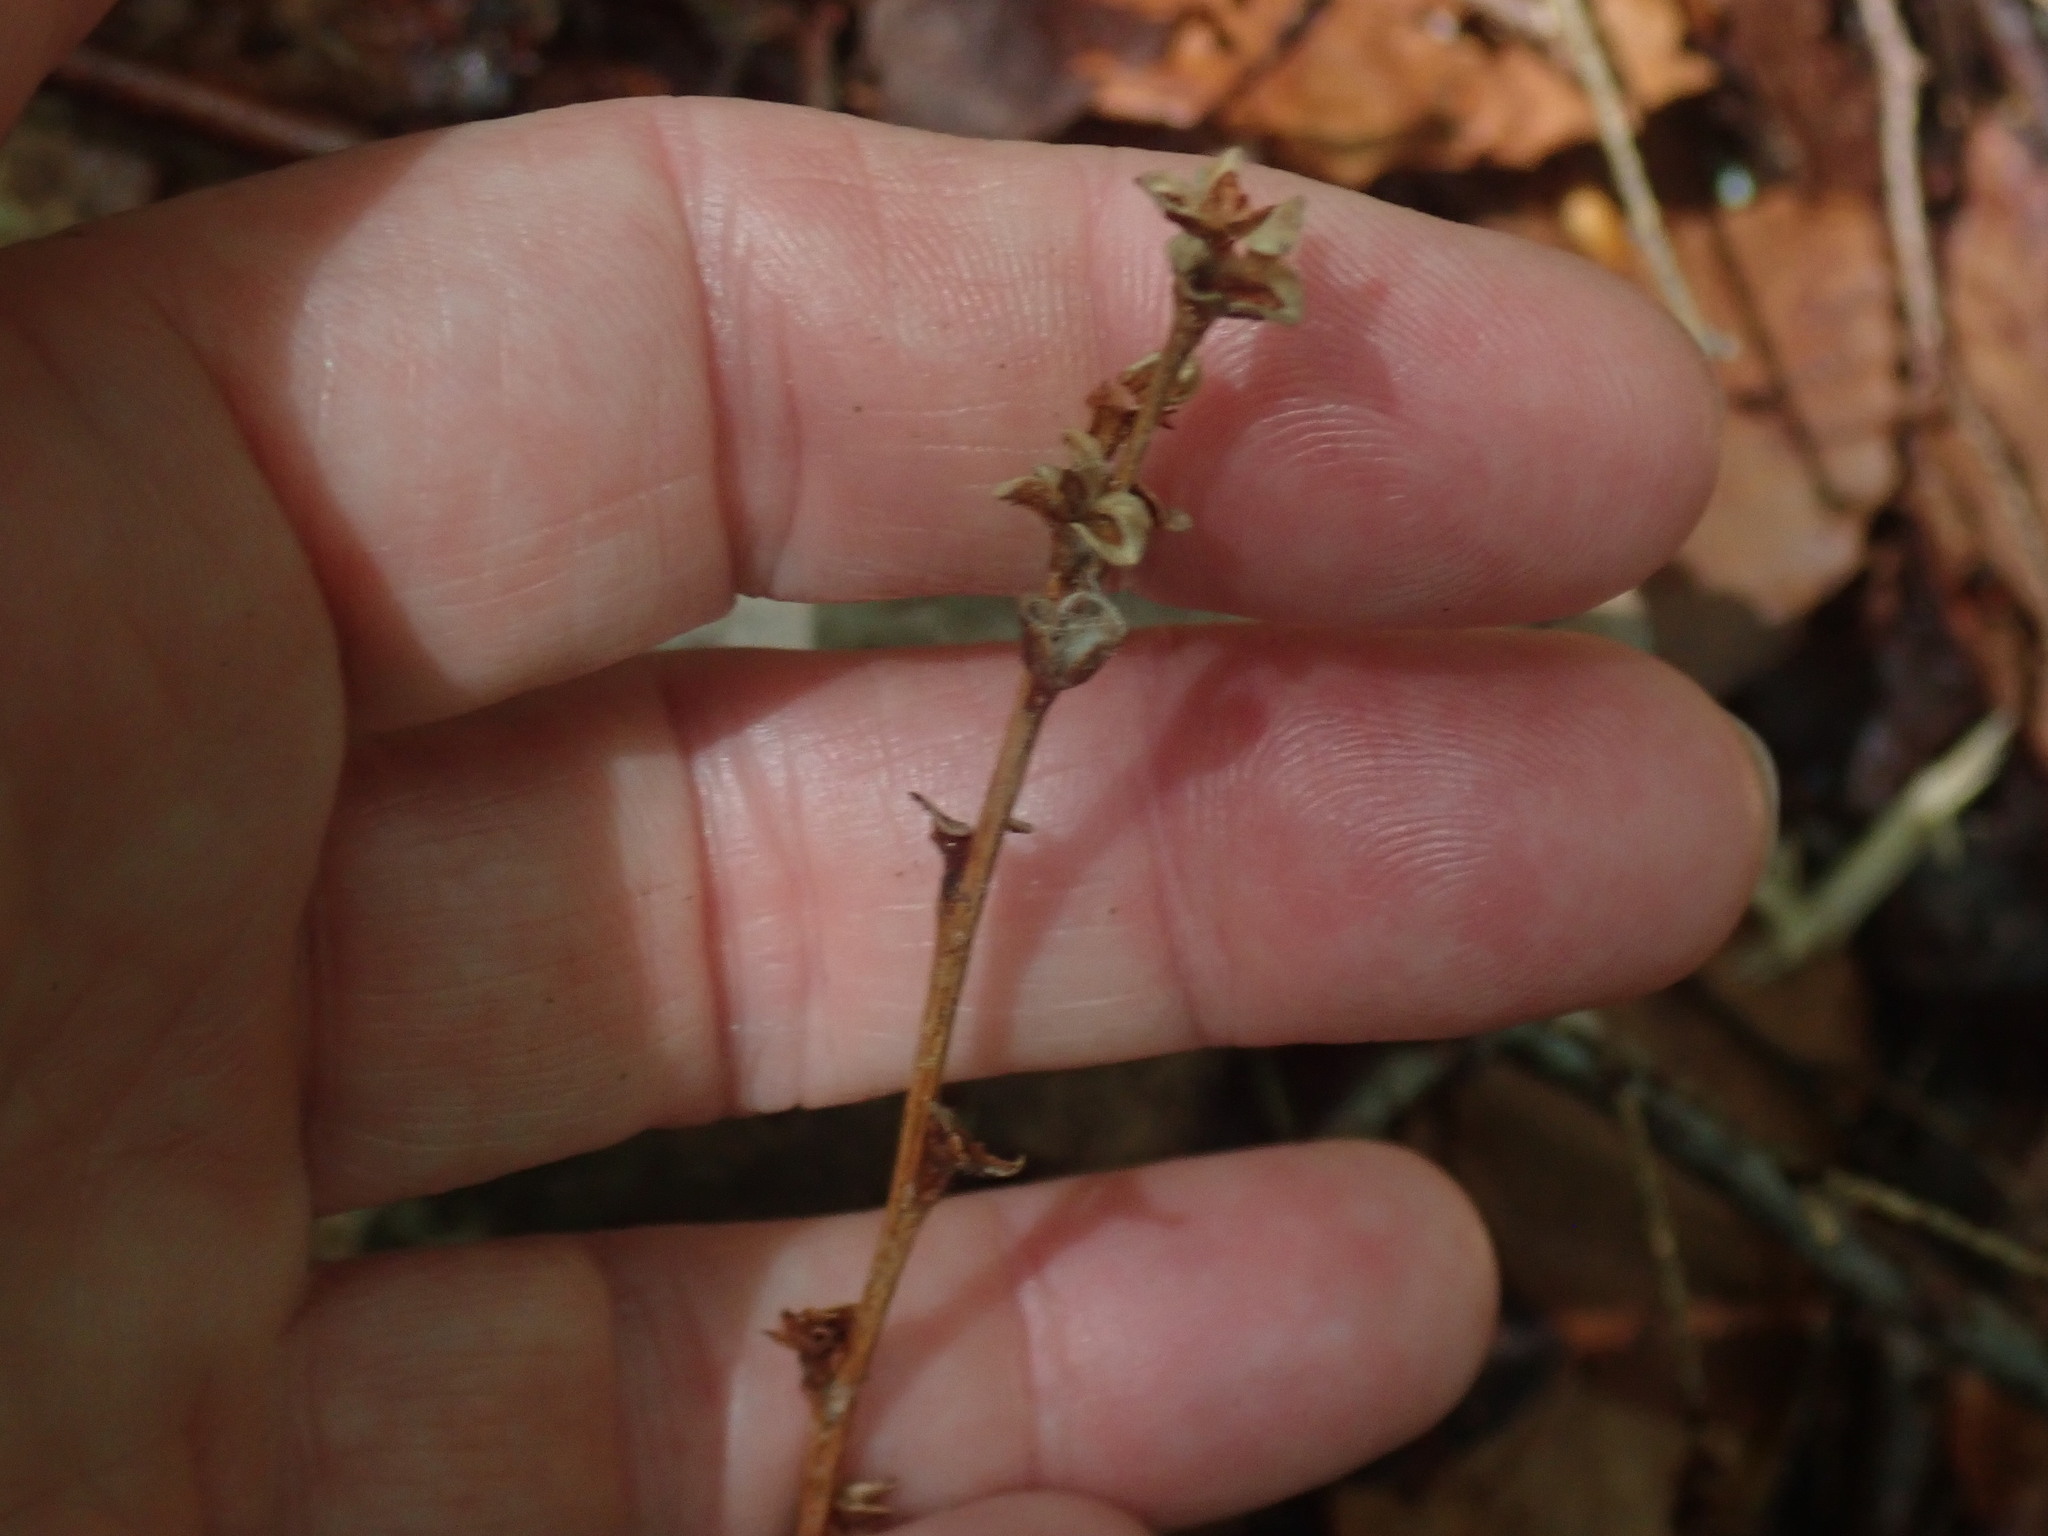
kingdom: Plantae
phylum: Tracheophyta
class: Magnoliopsida
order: Lamiales
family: Orobanchaceae
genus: Epifagus
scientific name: Epifagus virginiana
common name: Beechdrops
